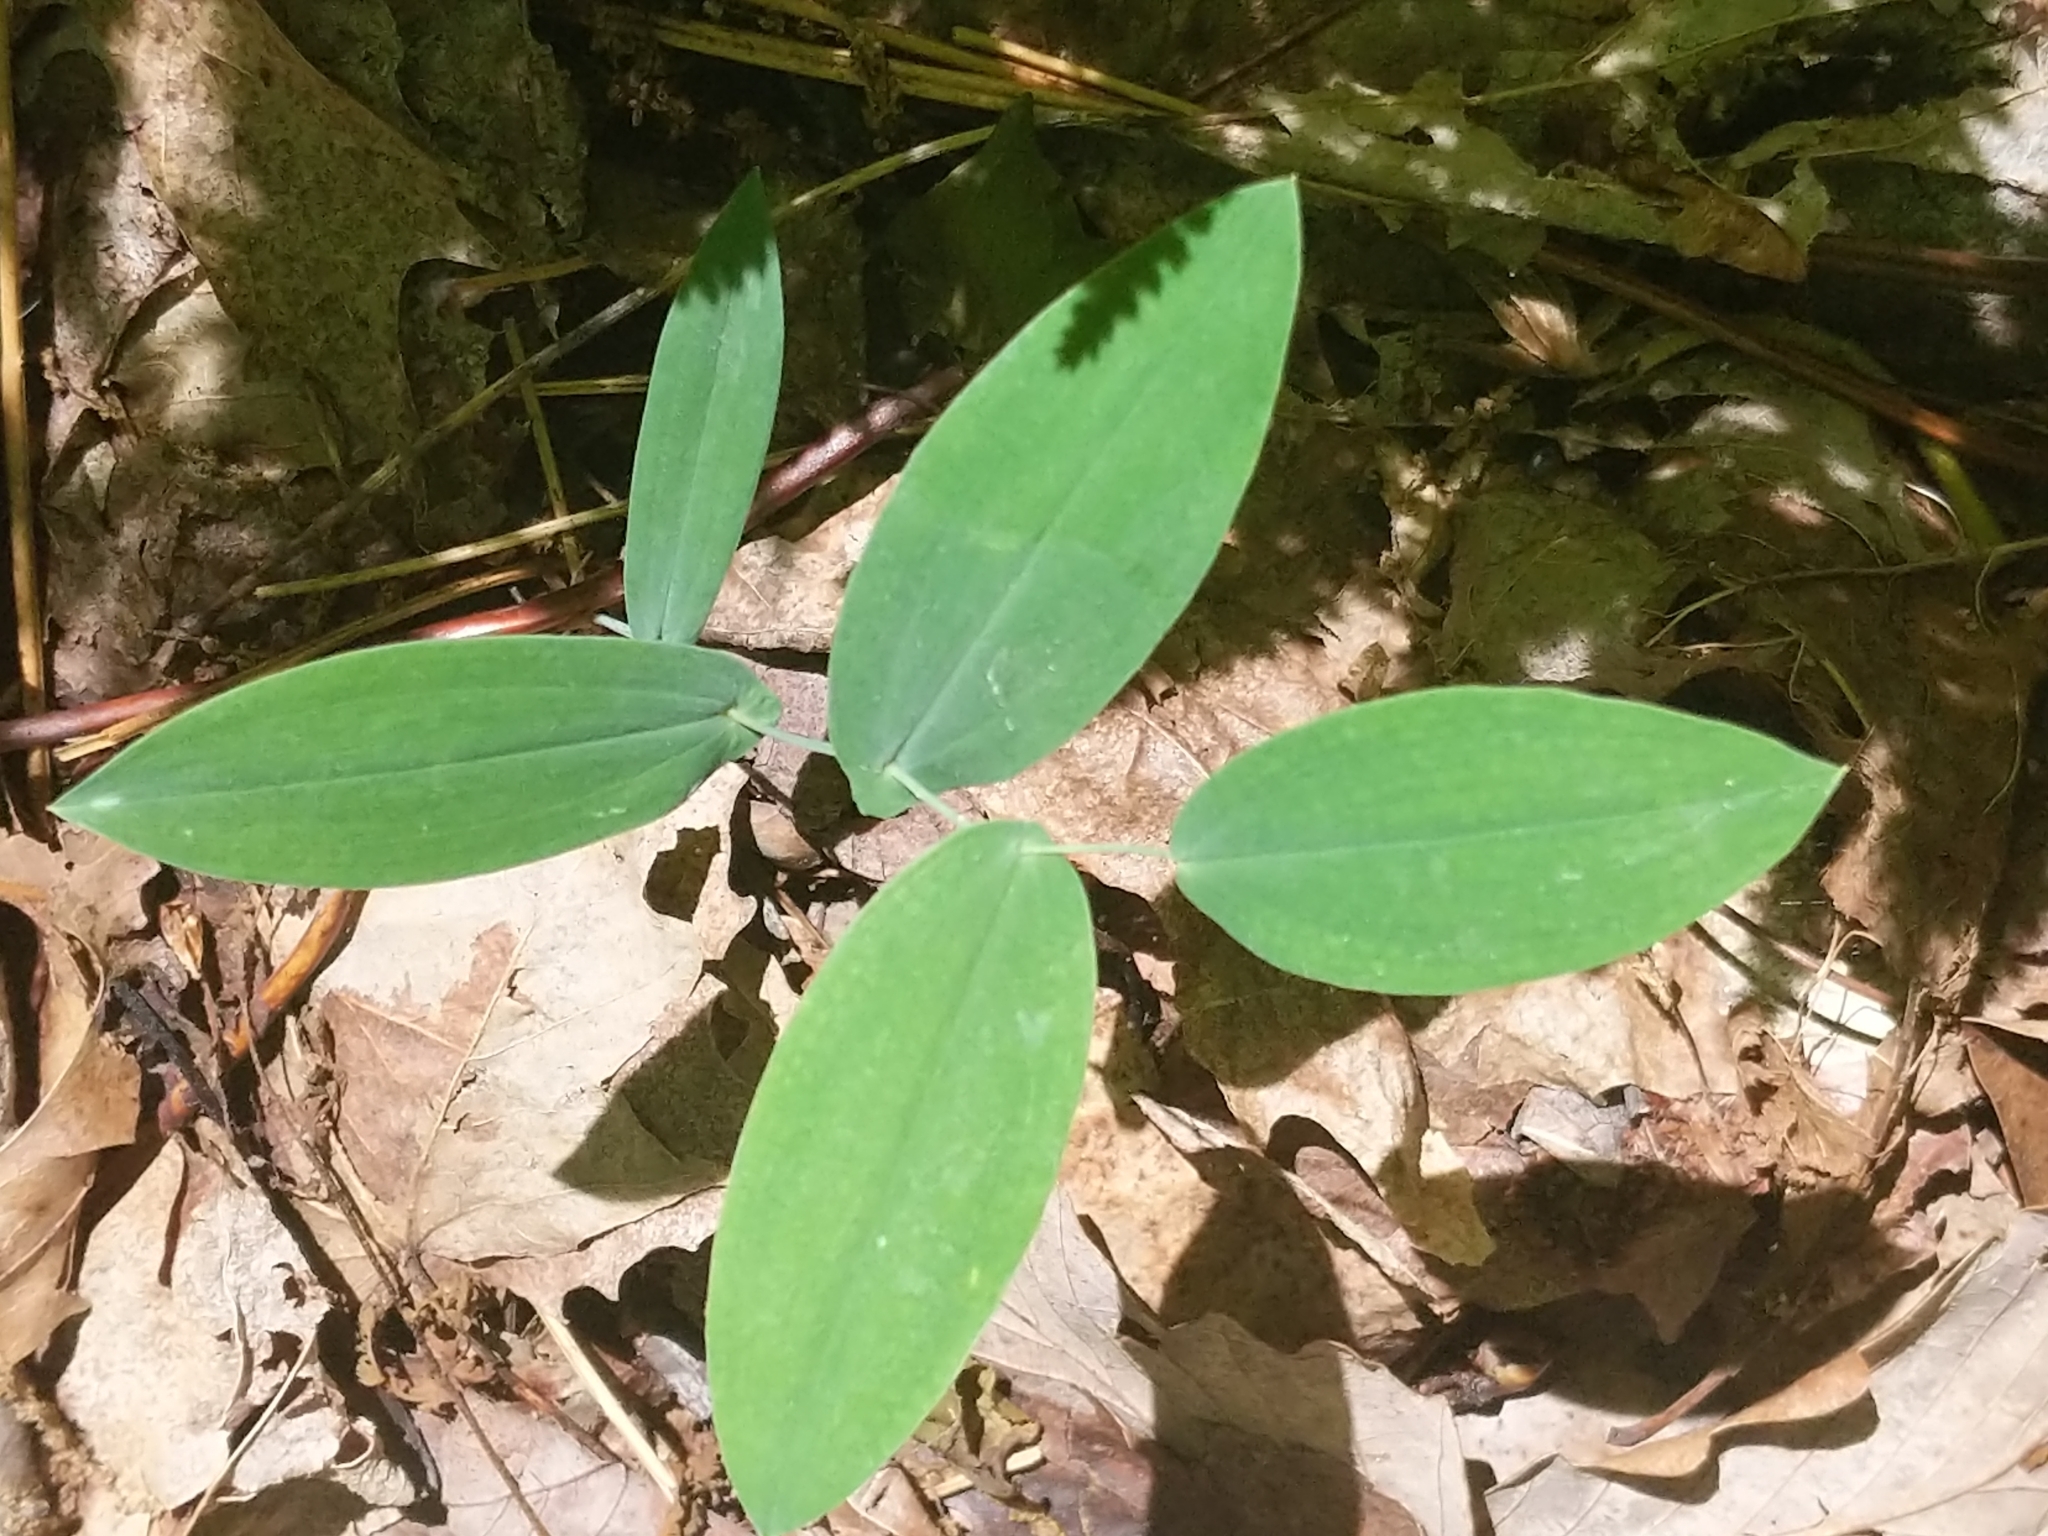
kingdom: Plantae
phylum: Tracheophyta
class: Liliopsida
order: Liliales
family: Colchicaceae
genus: Uvularia
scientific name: Uvularia perfoliata
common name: Perfoliate bellwort
